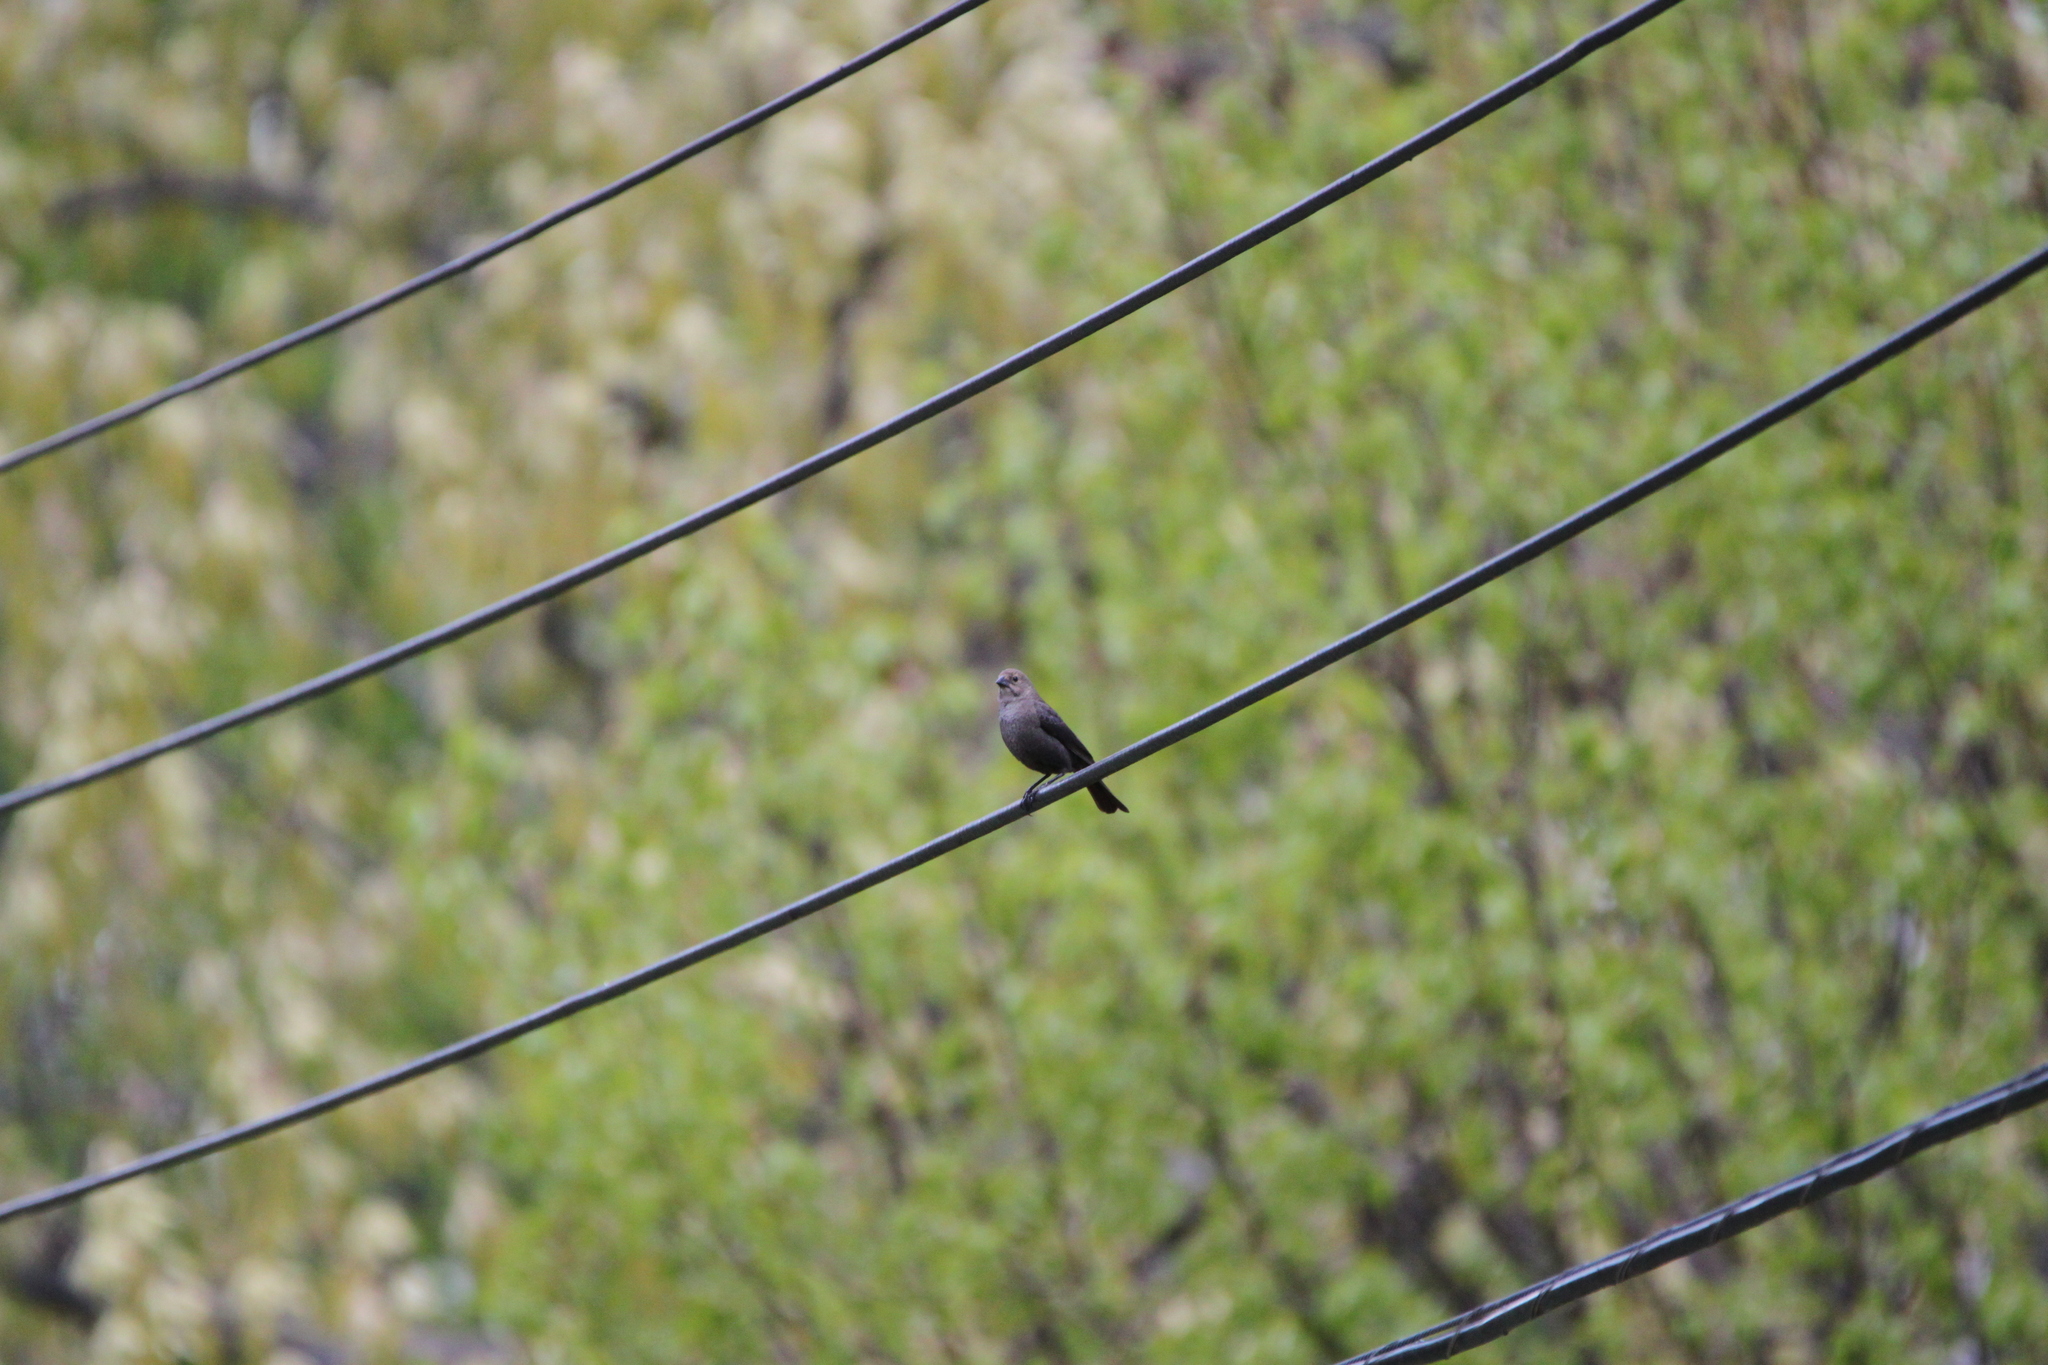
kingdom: Animalia
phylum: Chordata
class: Aves
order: Passeriformes
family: Icteridae
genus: Molothrus
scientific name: Molothrus ater
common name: Brown-headed cowbird
